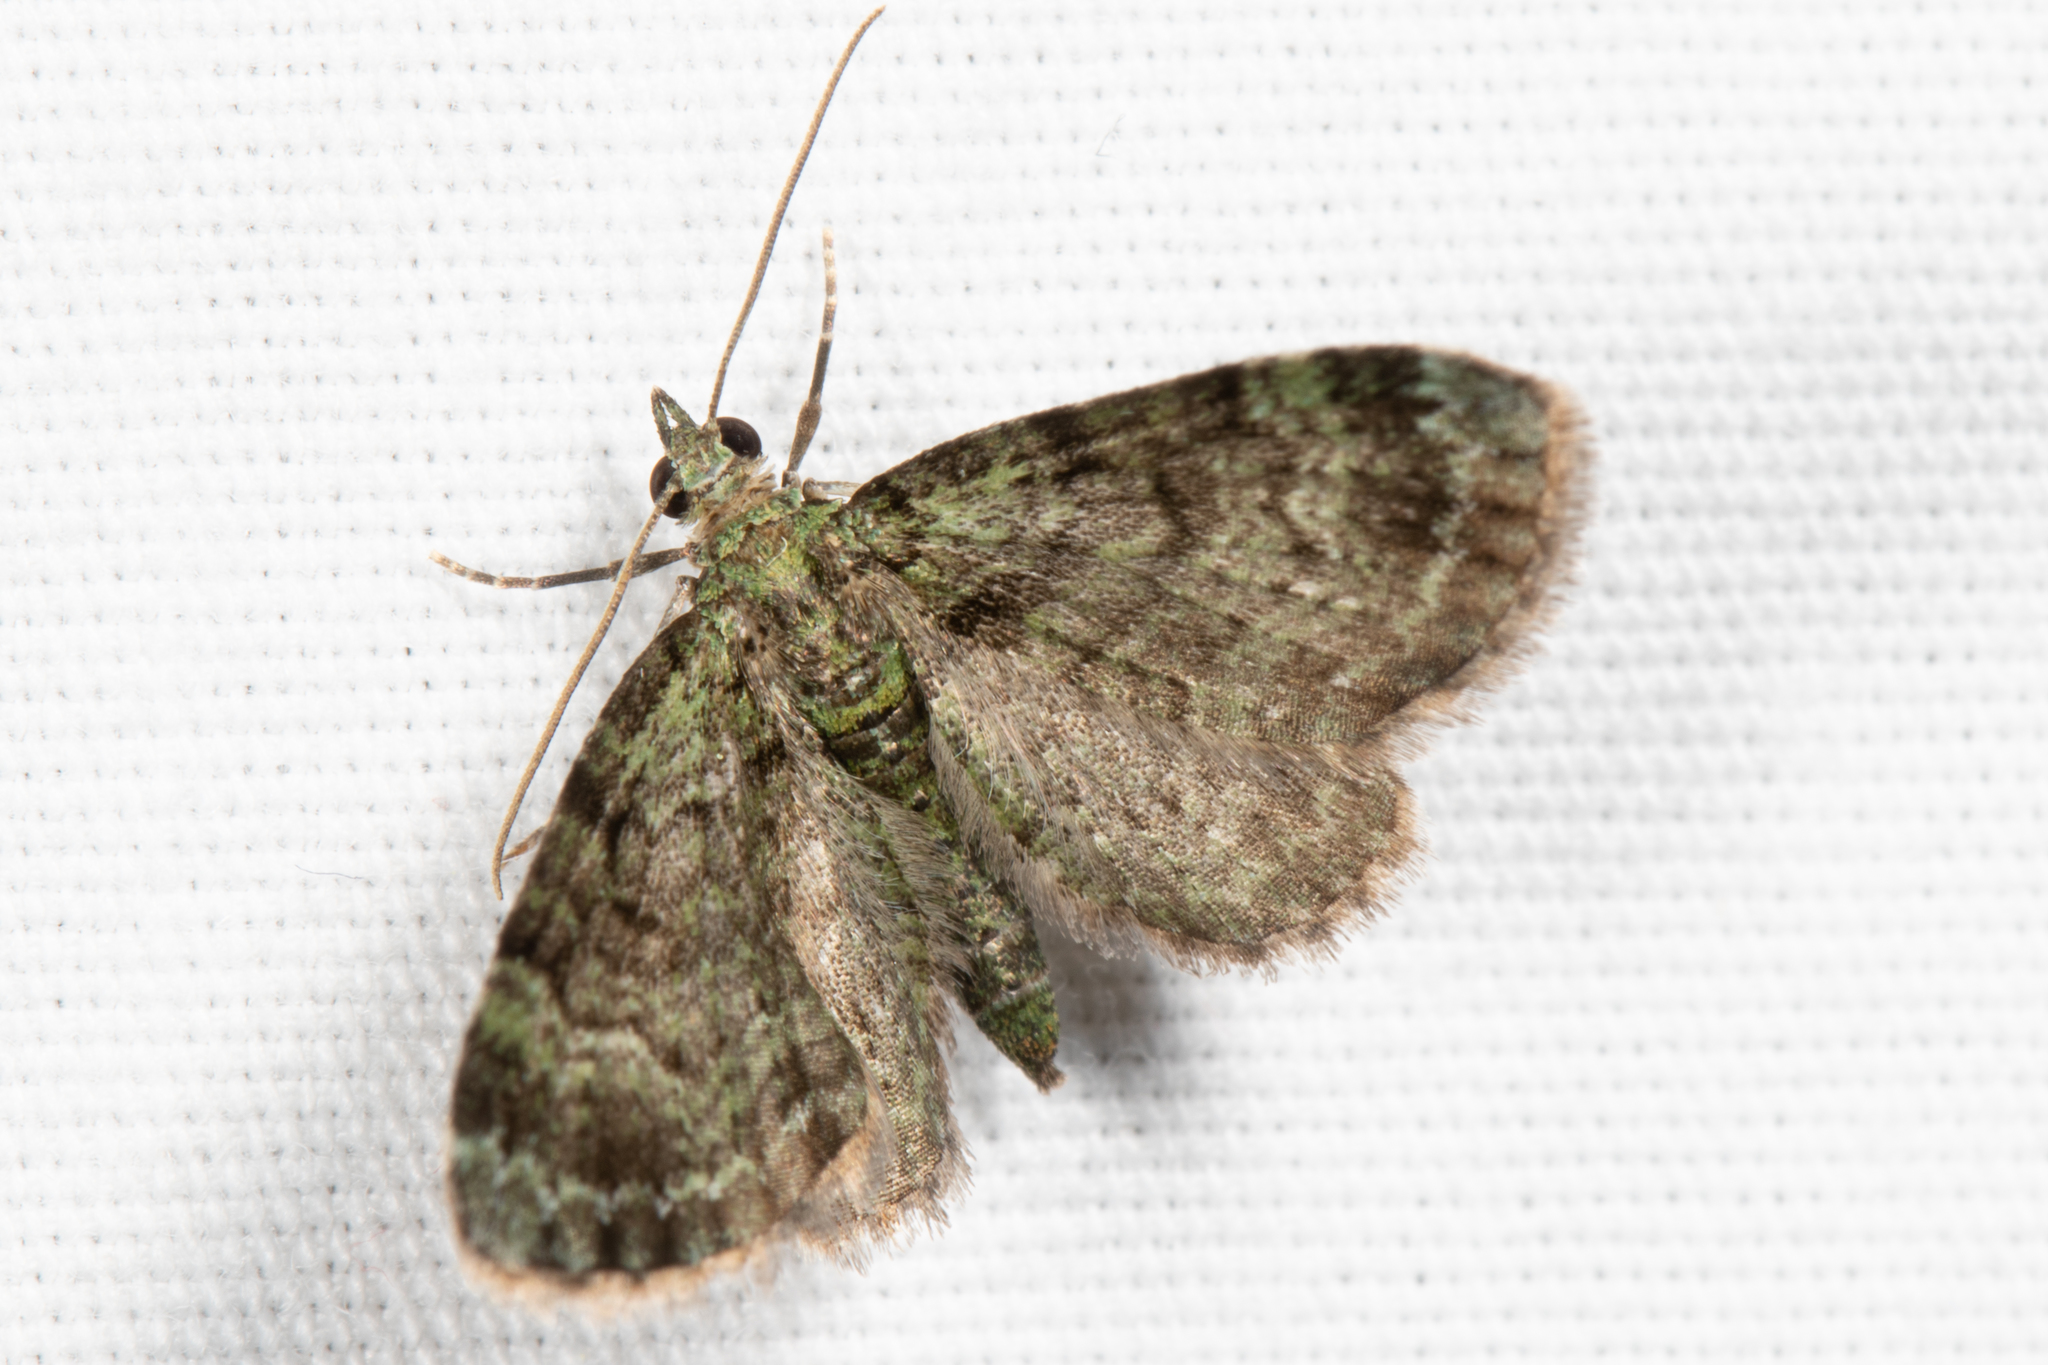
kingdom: Animalia
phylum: Arthropoda
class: Insecta
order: Lepidoptera
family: Geometridae
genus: Pasiphila
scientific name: Pasiphila rectangulata
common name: Green pug
